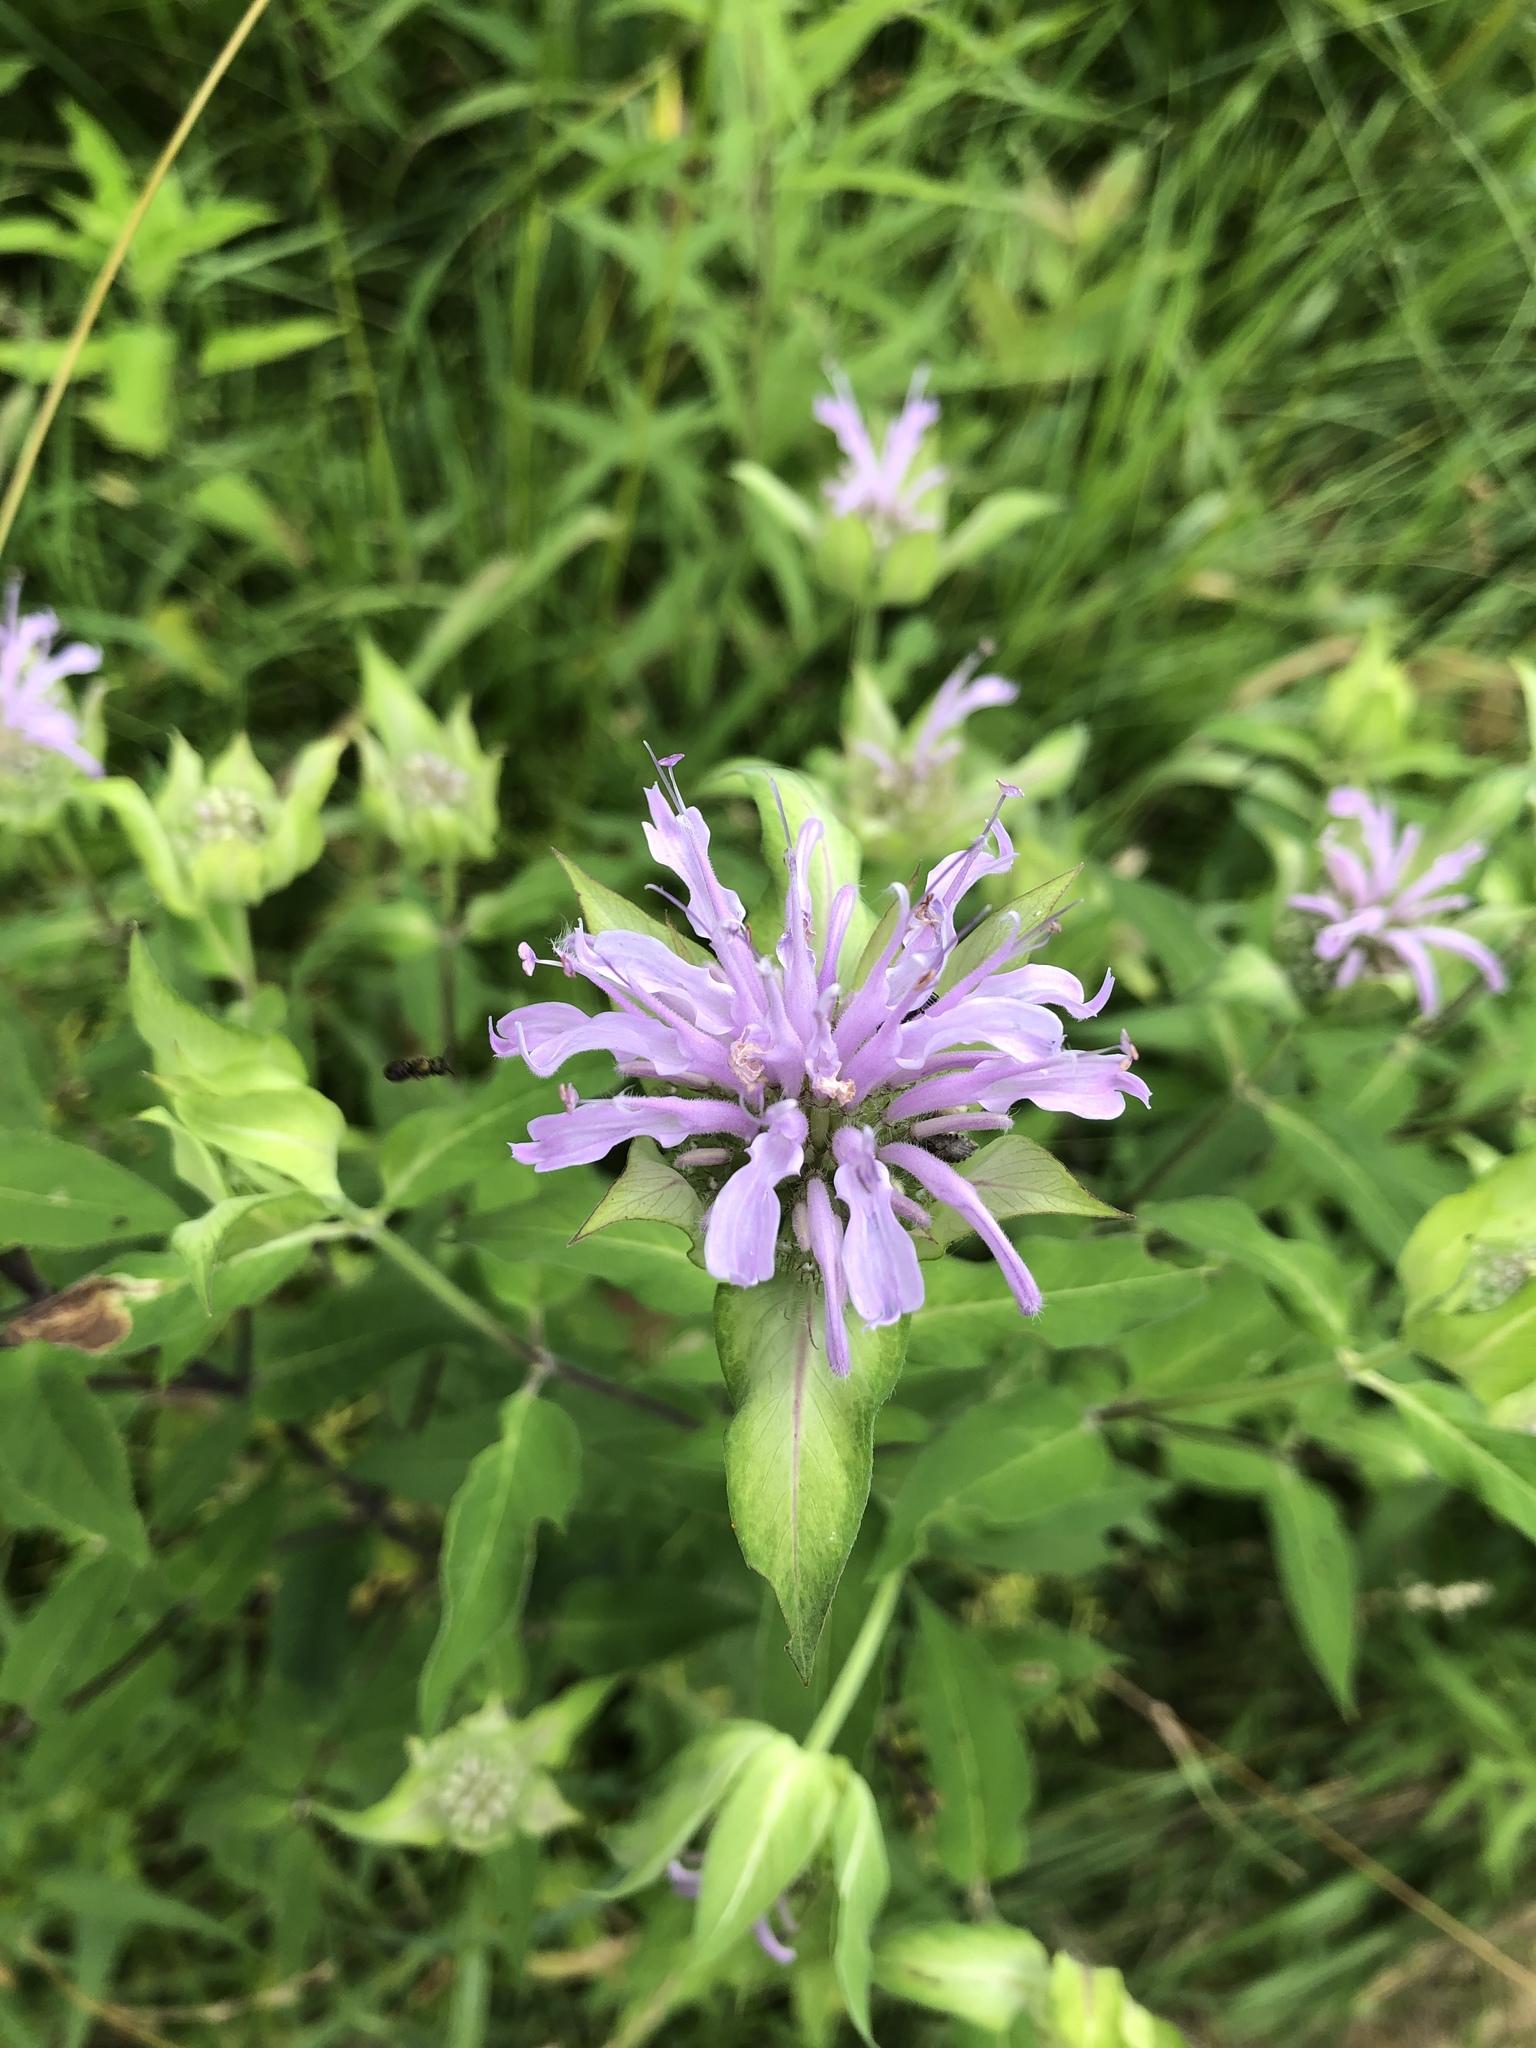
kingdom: Plantae
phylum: Tracheophyta
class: Magnoliopsida
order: Lamiales
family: Lamiaceae
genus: Monarda
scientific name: Monarda fistulosa
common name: Purple beebalm
